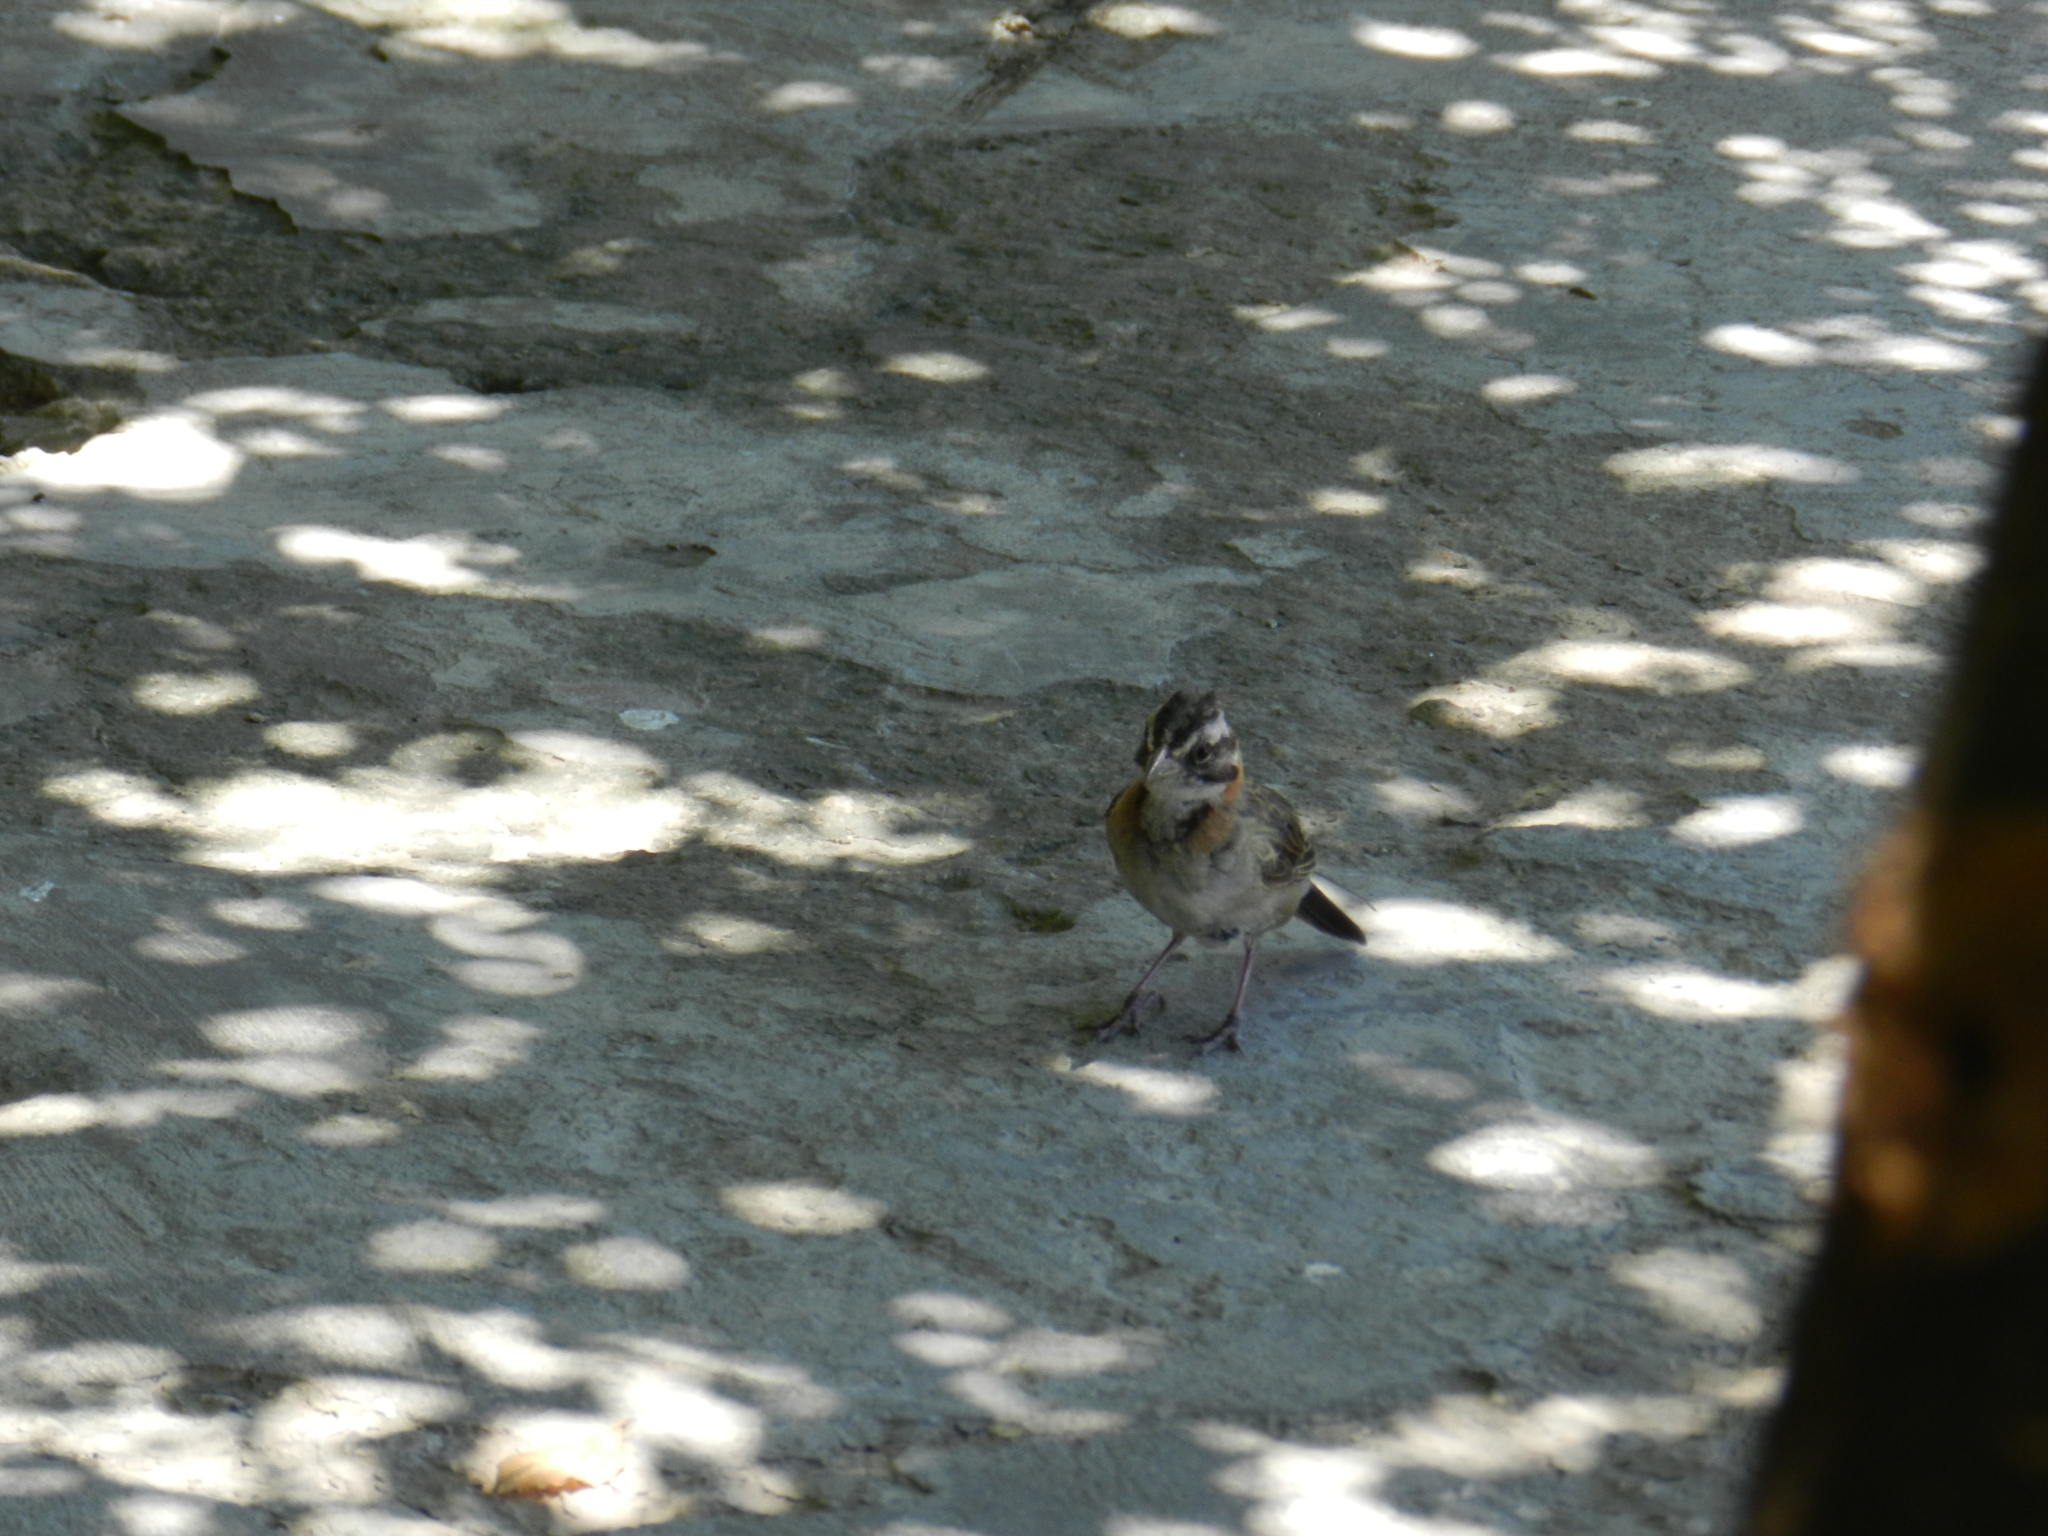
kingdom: Animalia
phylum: Chordata
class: Aves
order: Passeriformes
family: Passerellidae
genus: Zonotrichia
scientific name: Zonotrichia capensis
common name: Rufous-collared sparrow
